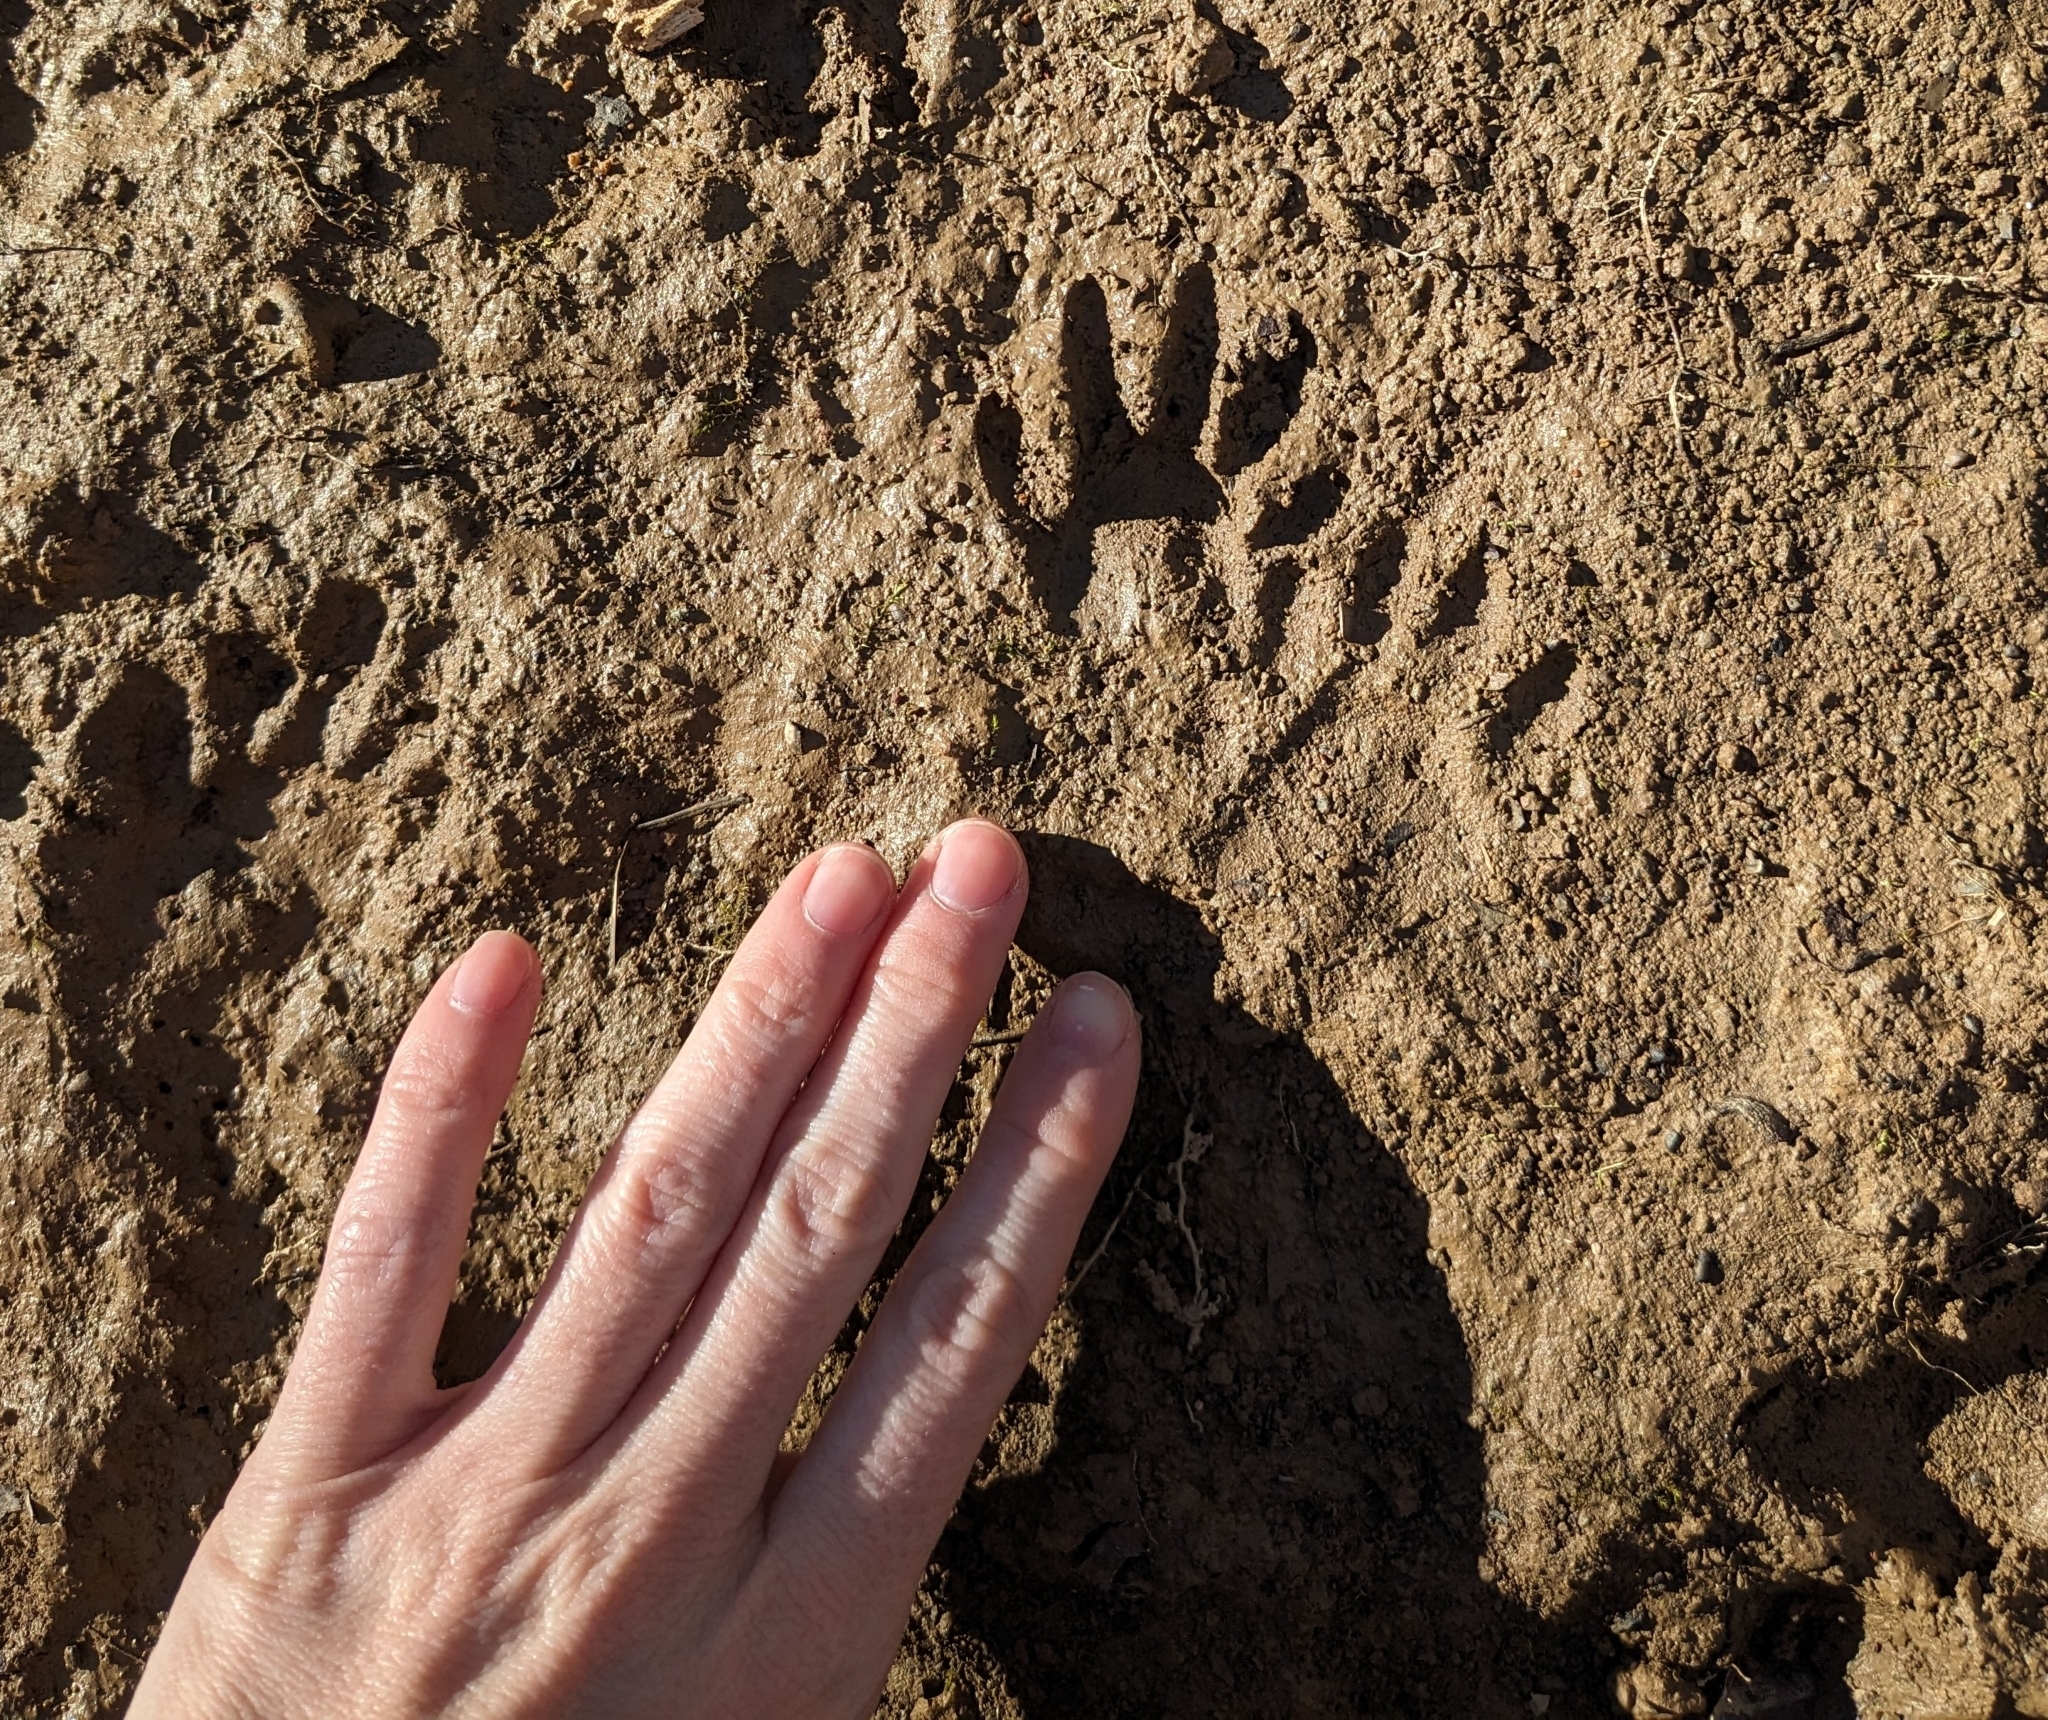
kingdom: Animalia
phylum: Chordata
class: Mammalia
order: Carnivora
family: Procyonidae
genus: Procyon
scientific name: Procyon lotor
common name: Raccoon
